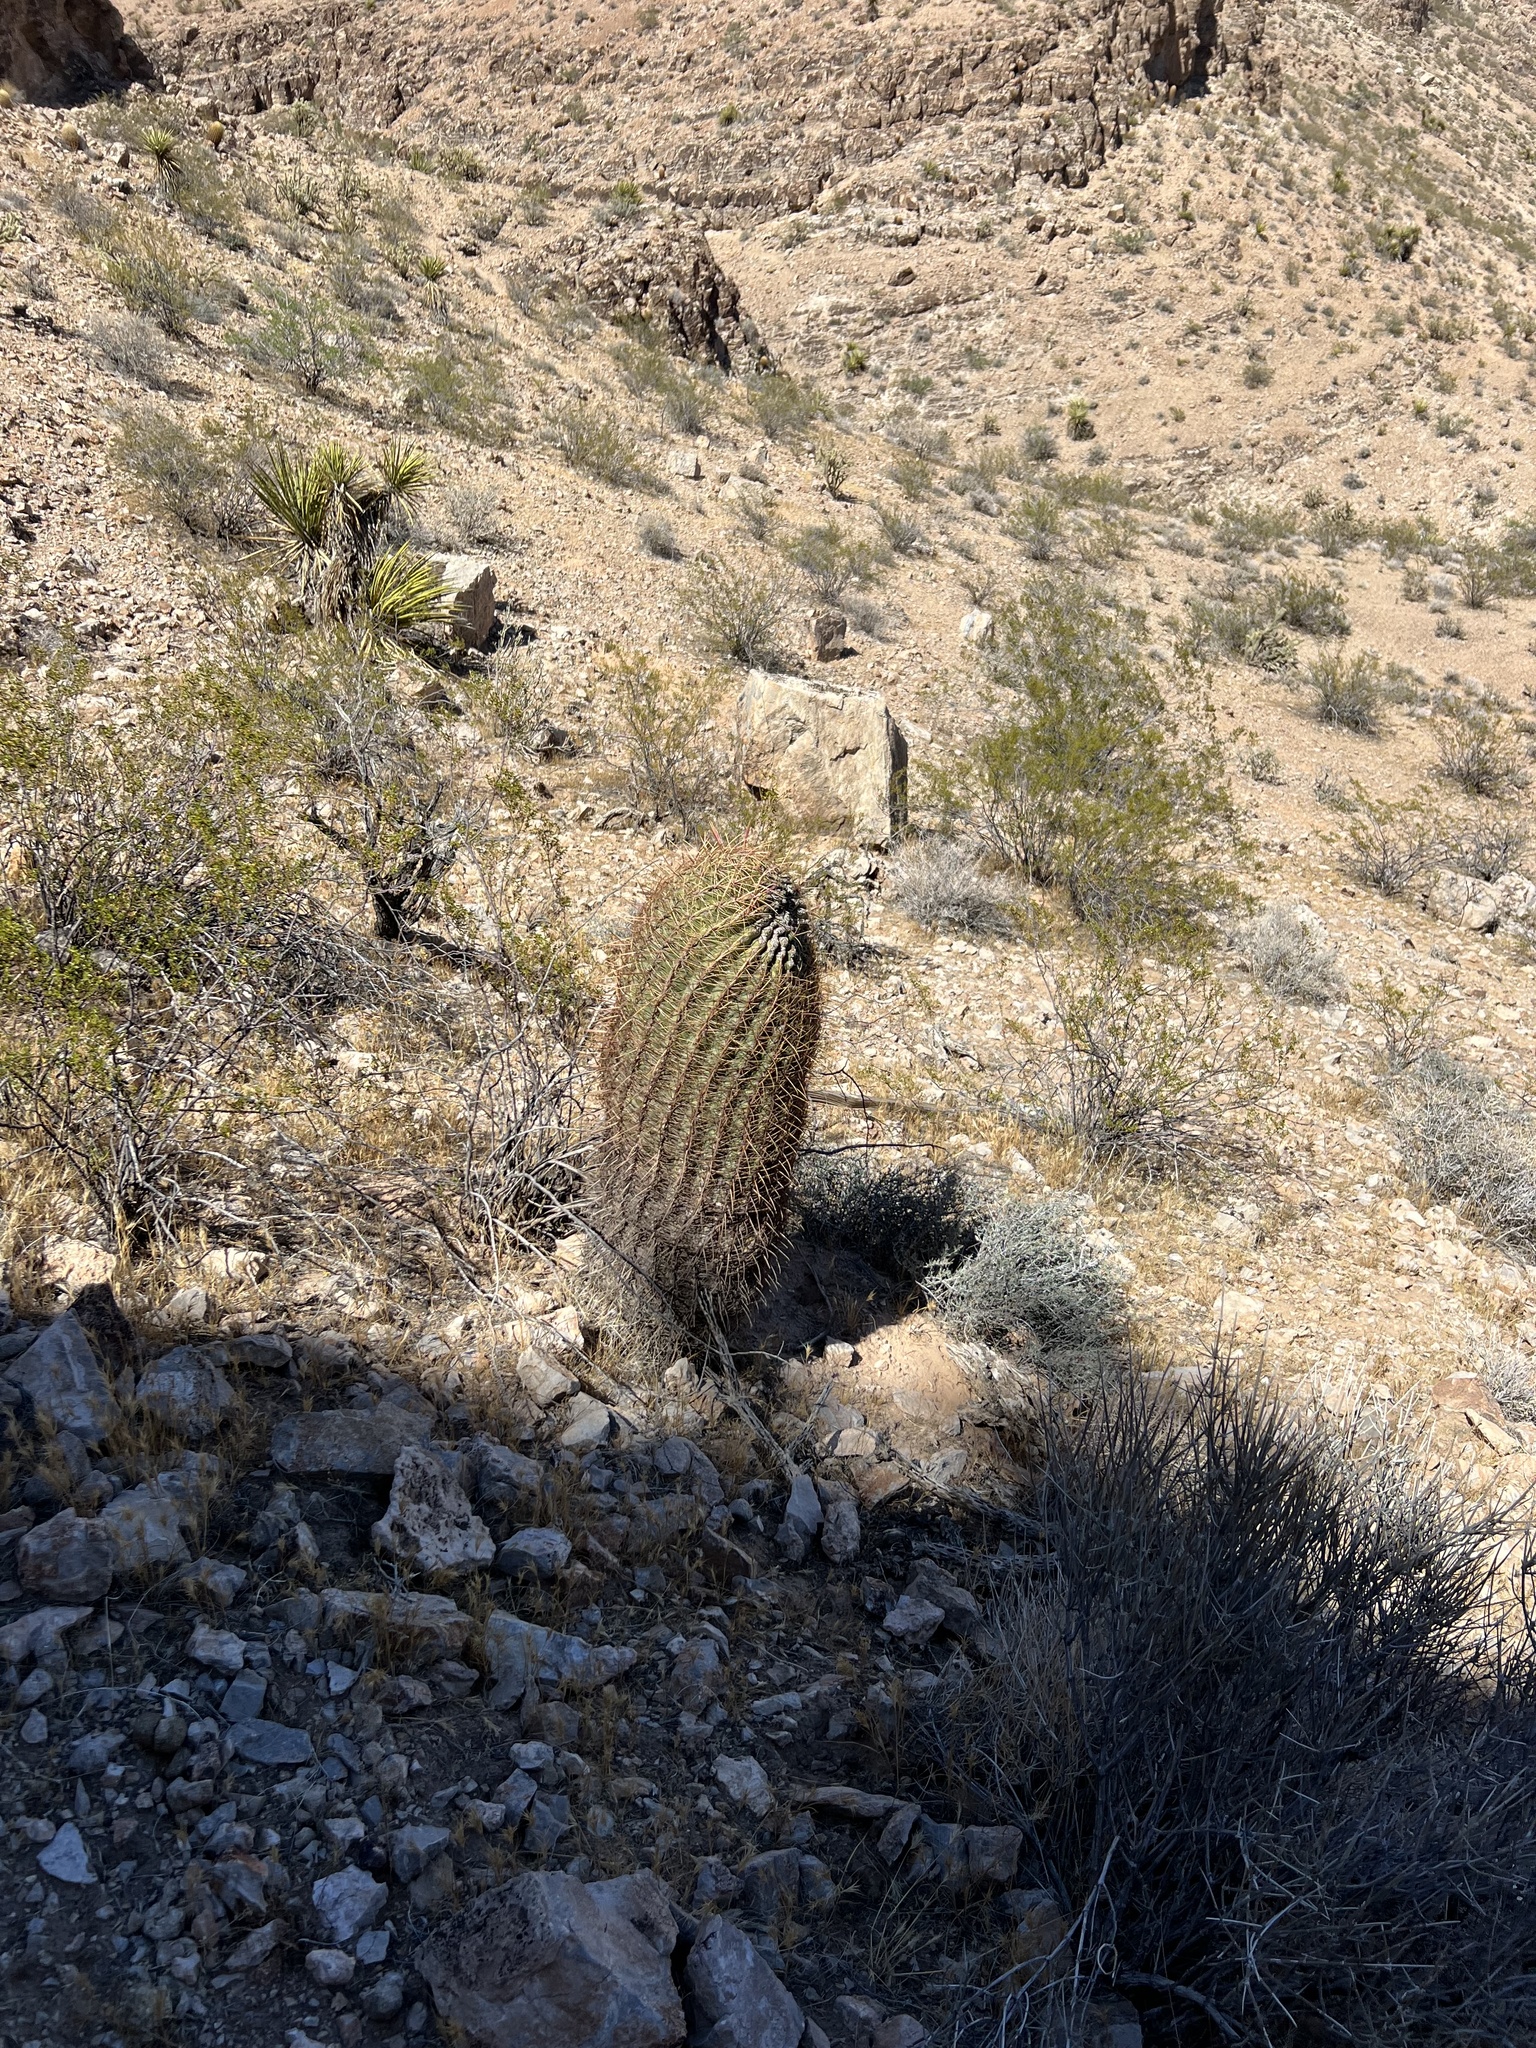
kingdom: Plantae
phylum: Tracheophyta
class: Magnoliopsida
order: Caryophyllales
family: Cactaceae
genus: Ferocactus
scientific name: Ferocactus cylindraceus
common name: California barrel cactus
